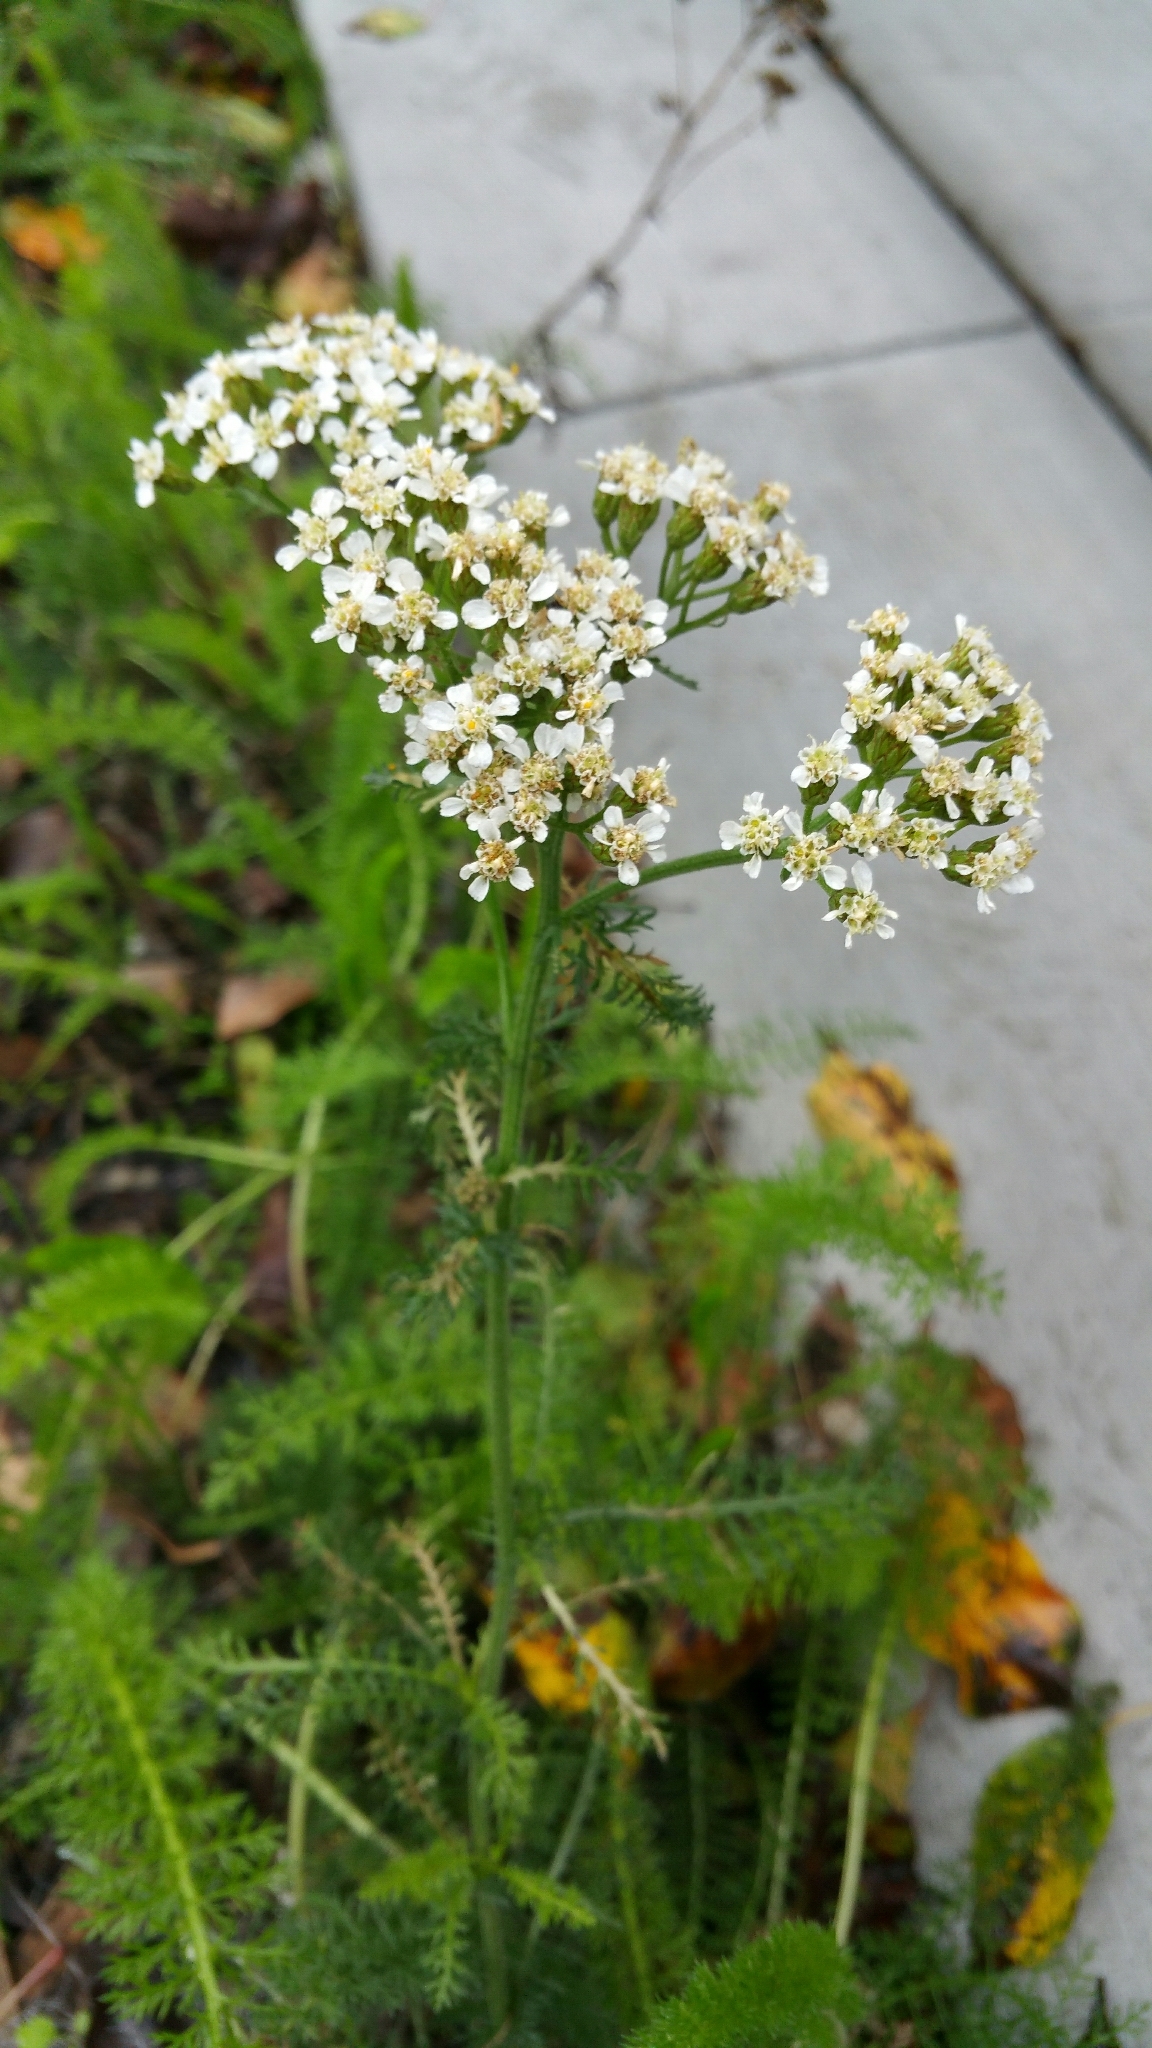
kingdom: Plantae
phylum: Tracheophyta
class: Magnoliopsida
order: Asterales
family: Asteraceae
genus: Achillea
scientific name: Achillea millefolium
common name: Yarrow
